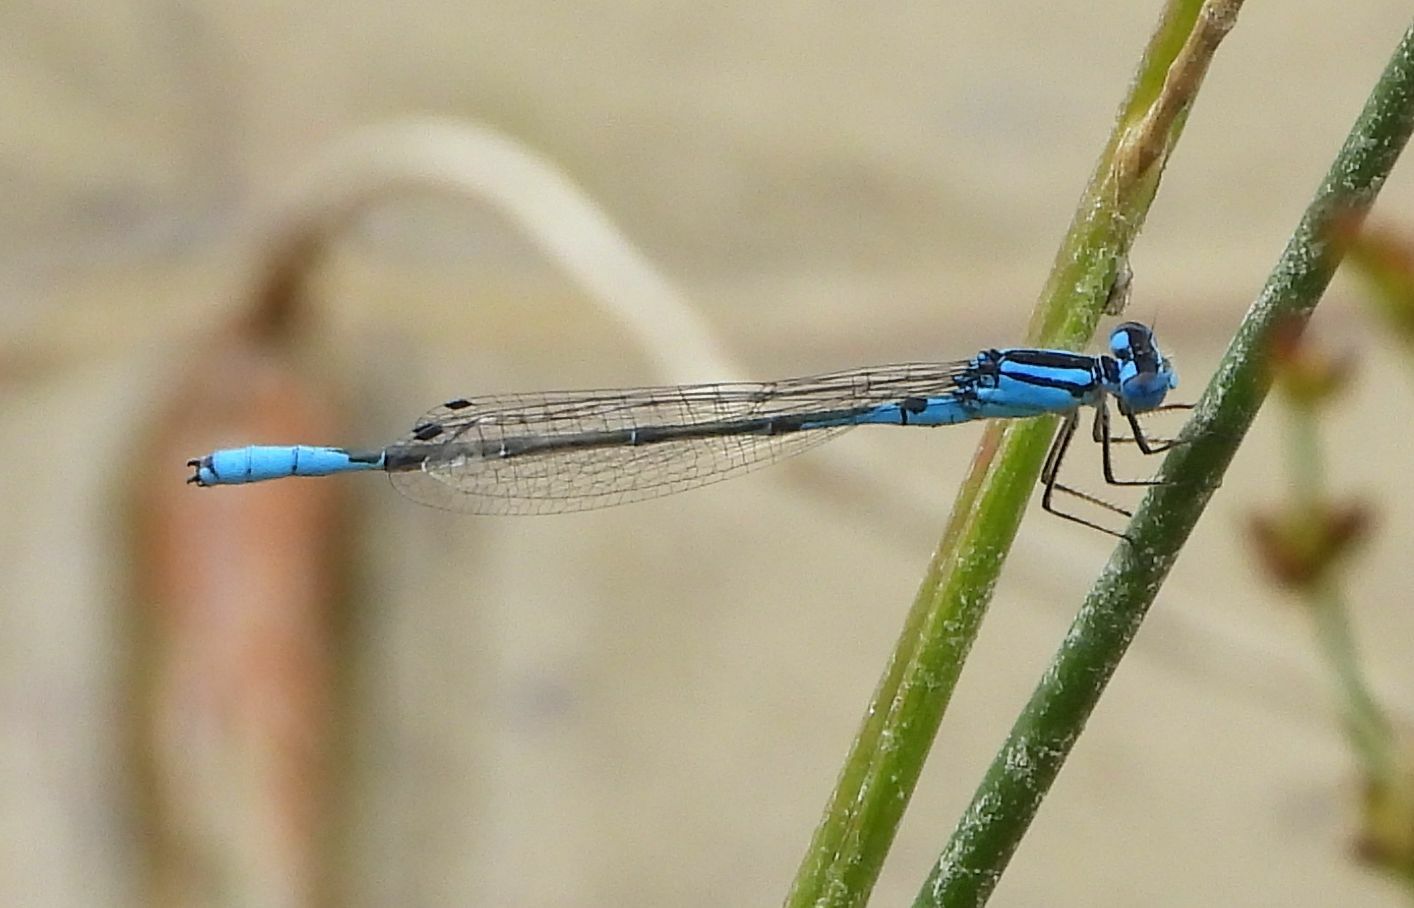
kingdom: Animalia
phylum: Arthropoda
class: Insecta
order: Odonata
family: Coenagrionidae
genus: Enallagma
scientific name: Enallagma aspersum
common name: Azure bluet
